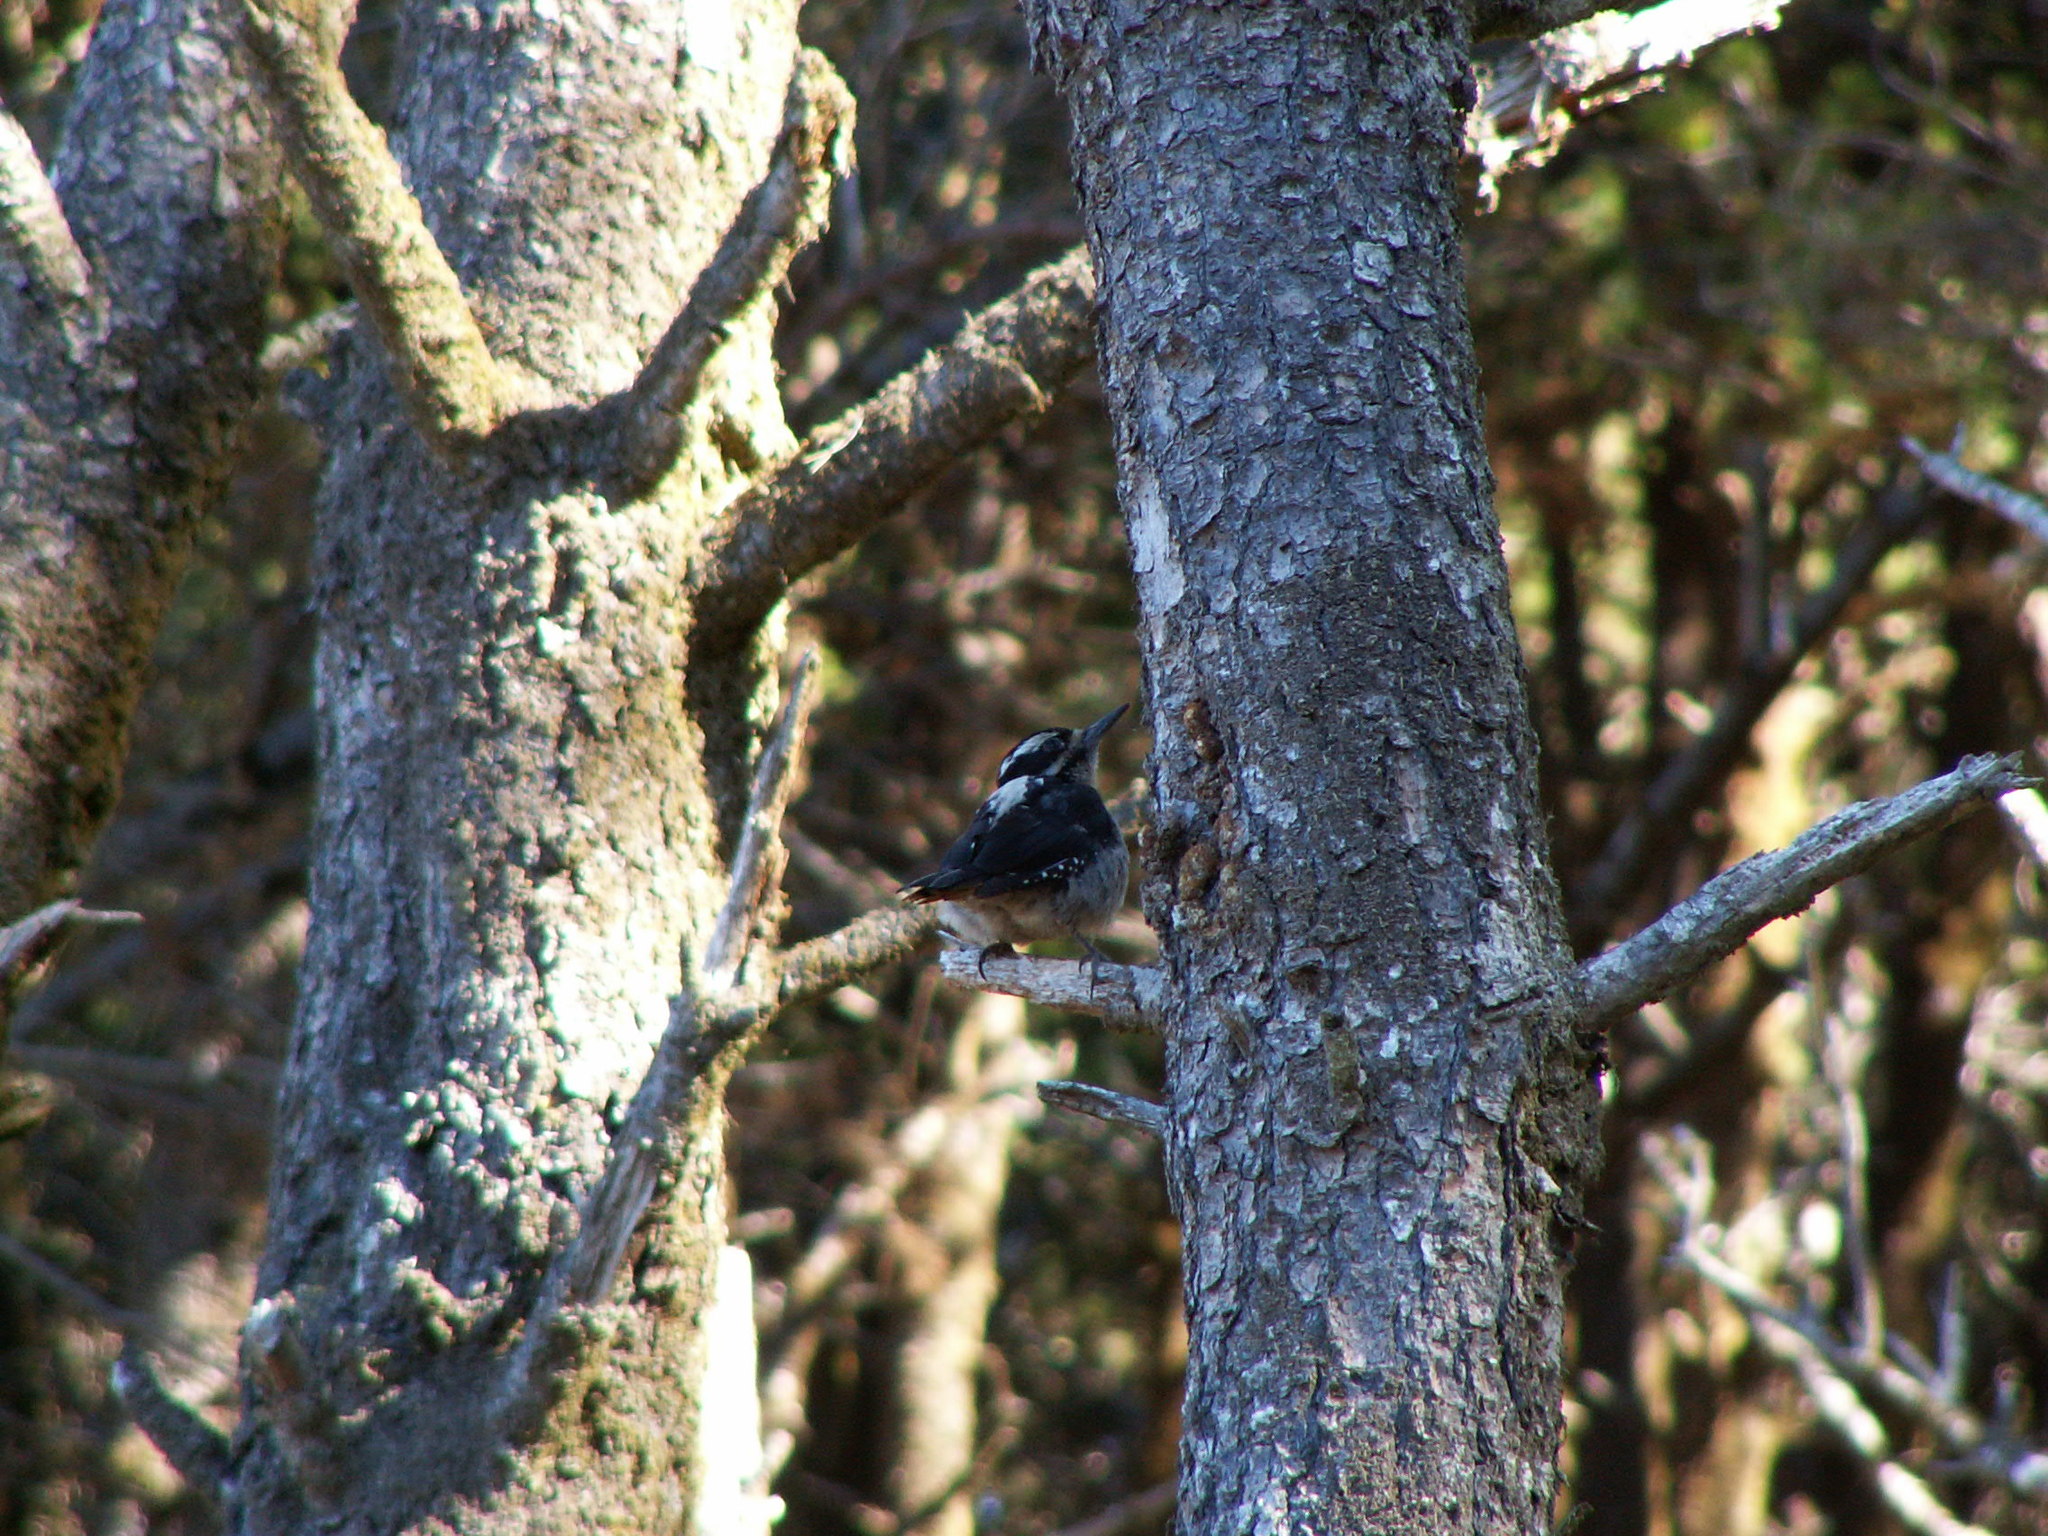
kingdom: Animalia
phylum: Chordata
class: Aves
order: Piciformes
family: Picidae
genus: Leuconotopicus
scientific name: Leuconotopicus villosus
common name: Hairy woodpecker
